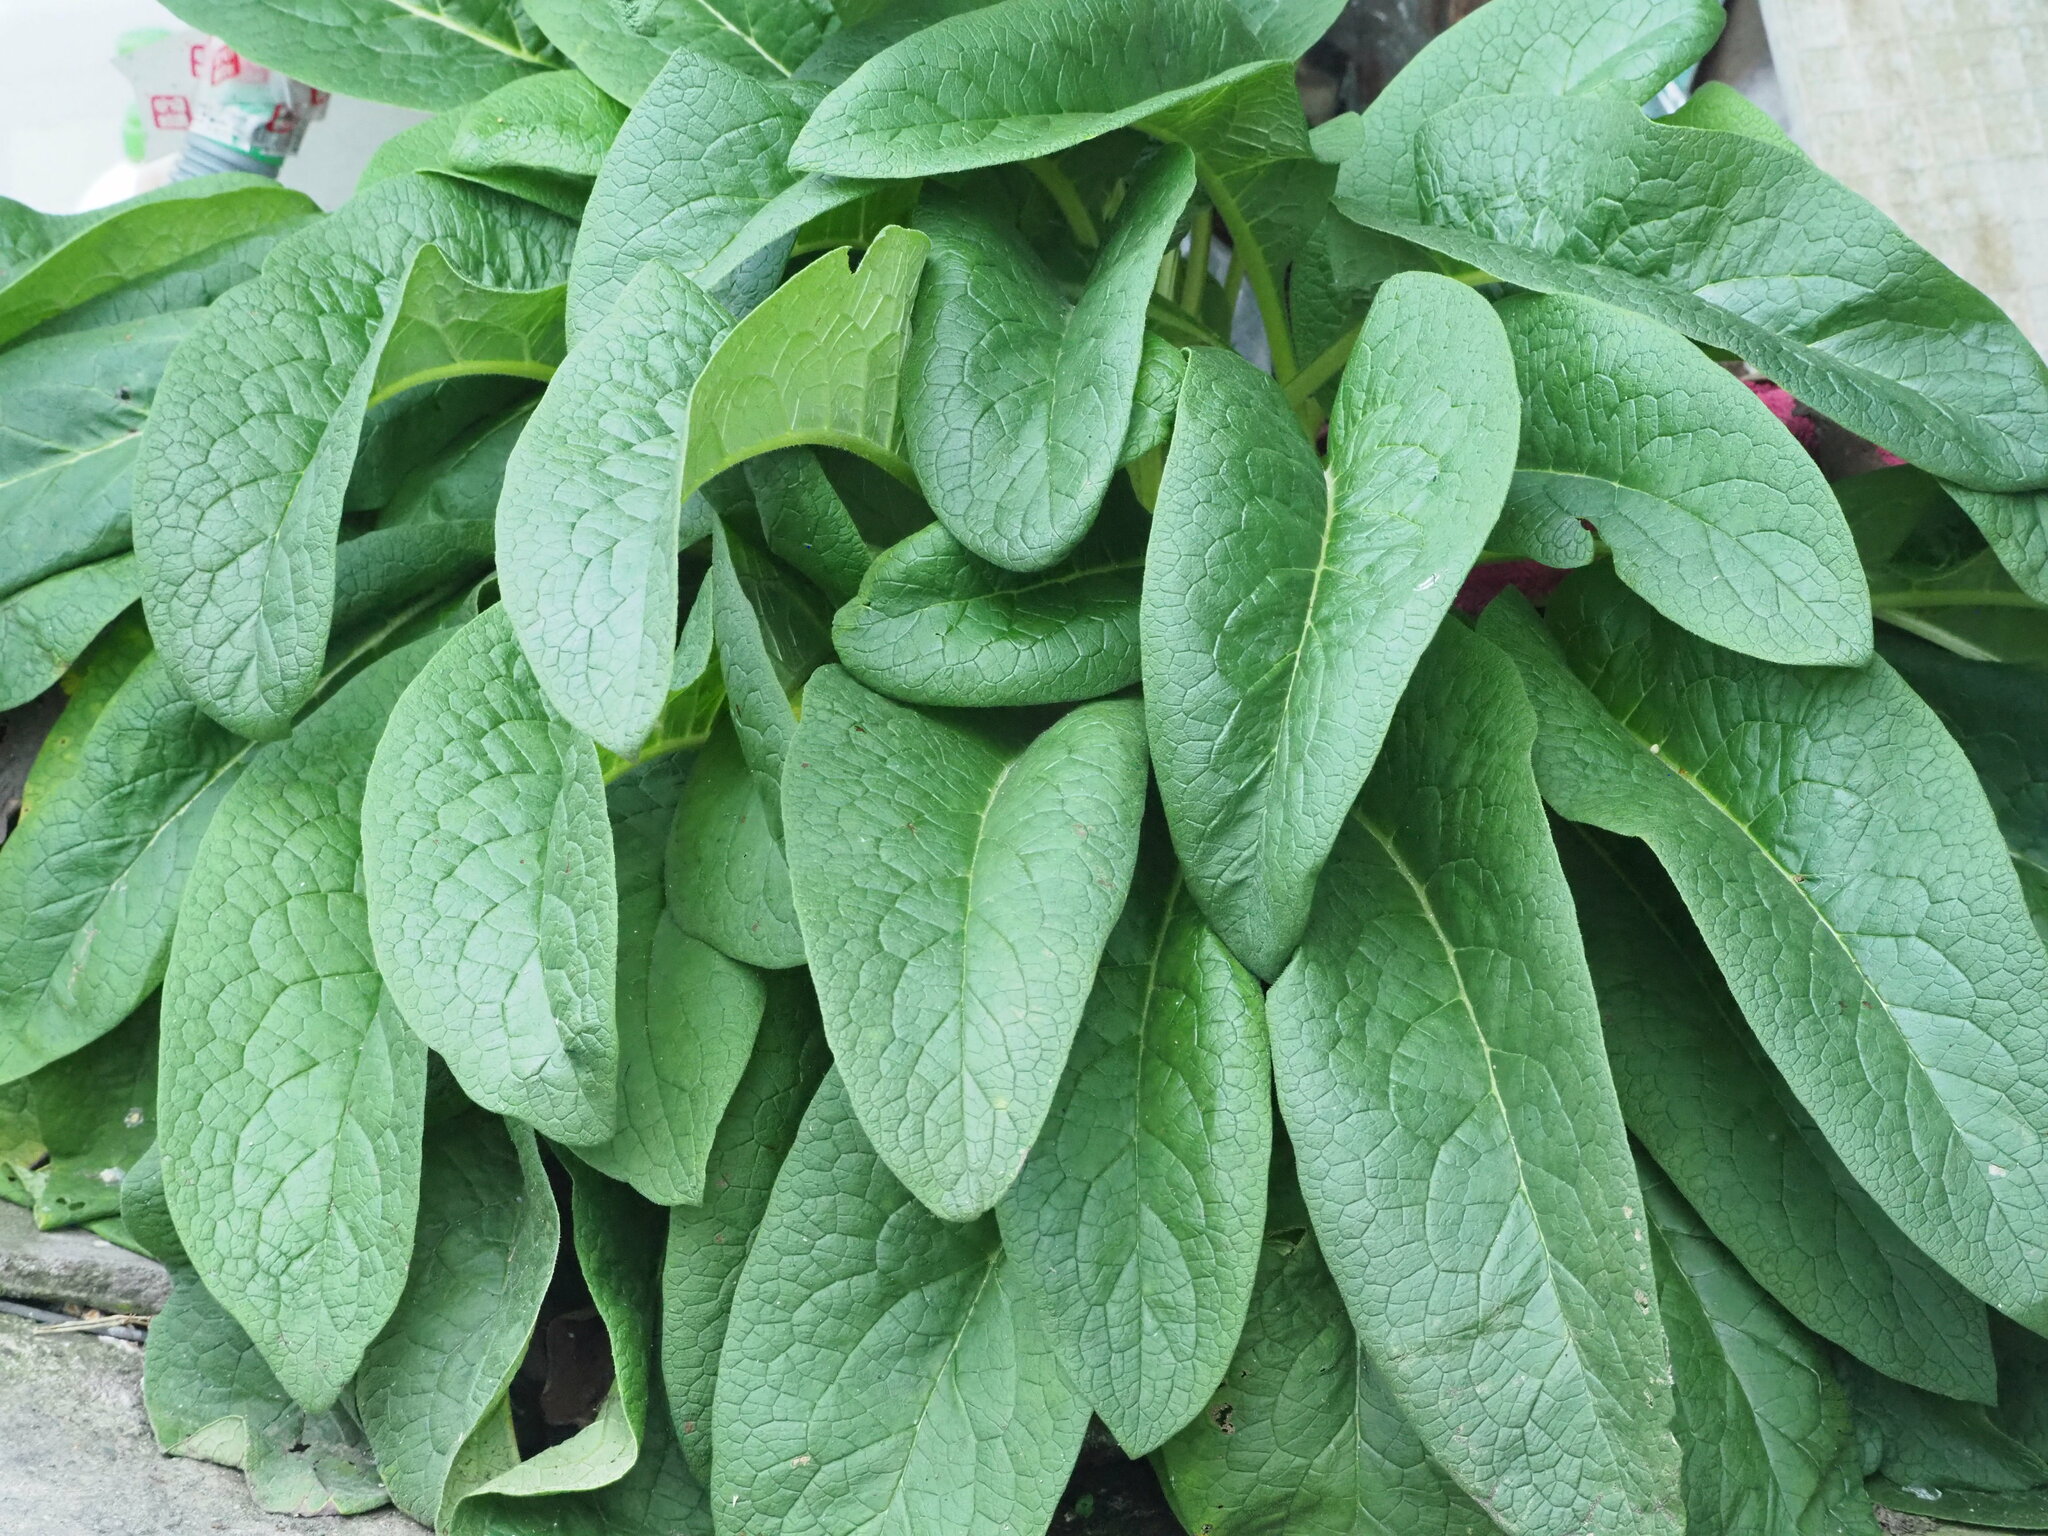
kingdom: Plantae
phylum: Tracheophyta
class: Magnoliopsida
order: Boraginales
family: Boraginaceae
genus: Symphytum
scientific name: Symphytum officinale
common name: Common comfrey
